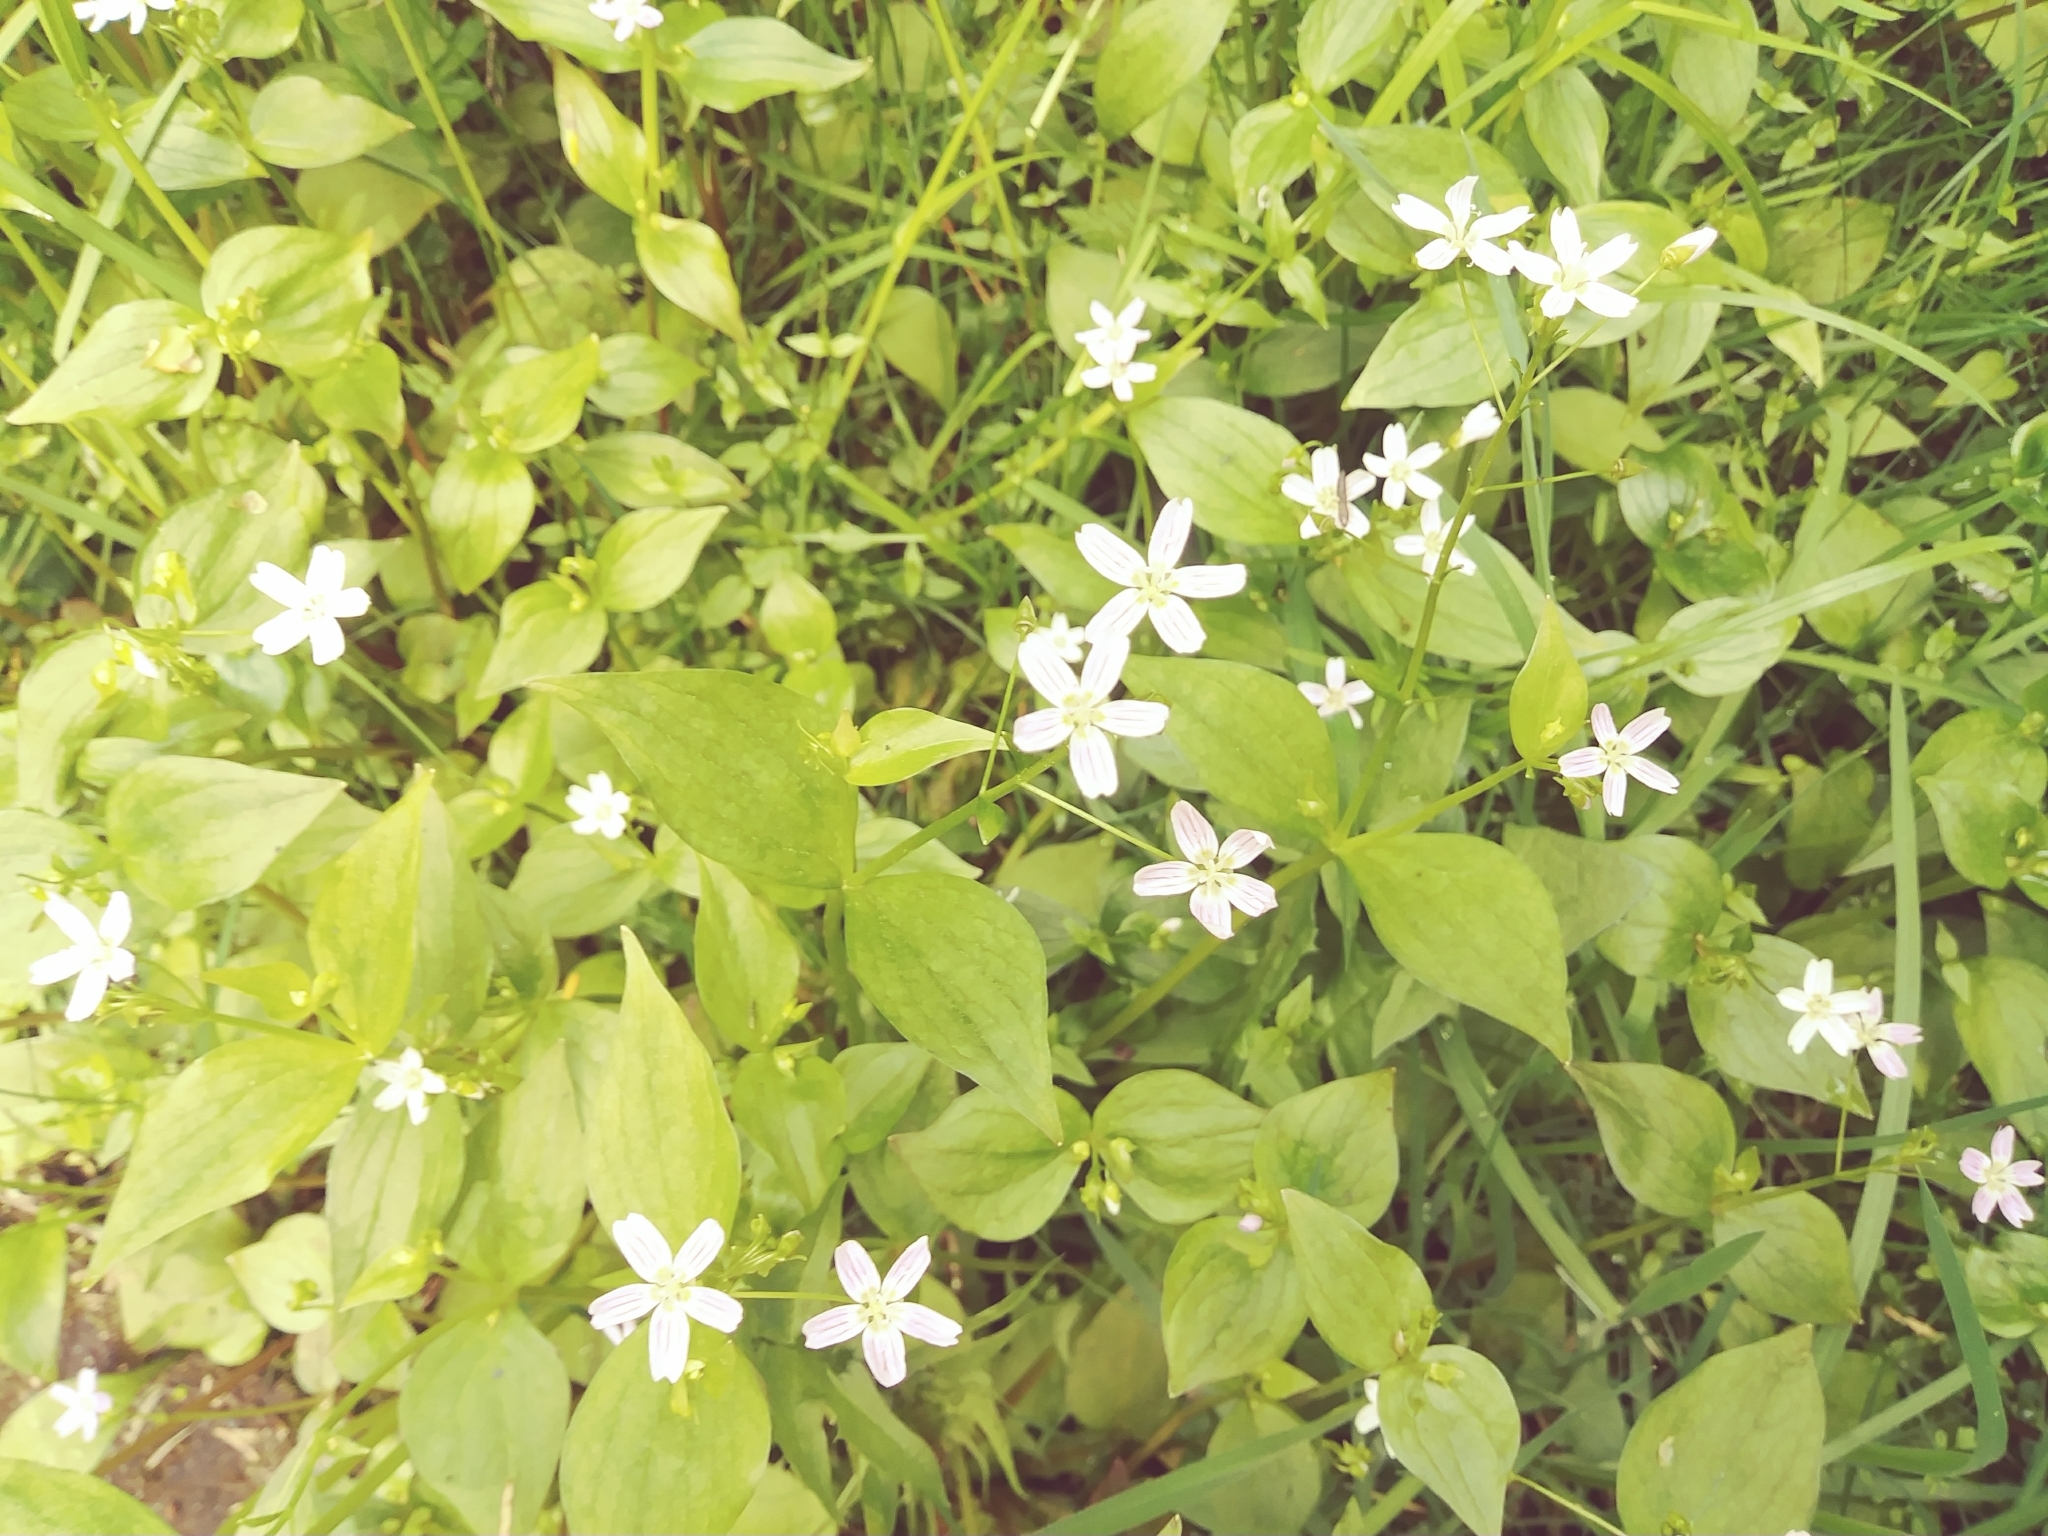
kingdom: Plantae
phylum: Tracheophyta
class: Magnoliopsida
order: Caryophyllales
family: Montiaceae
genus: Claytonia
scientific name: Claytonia sibirica
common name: Pink purslane
